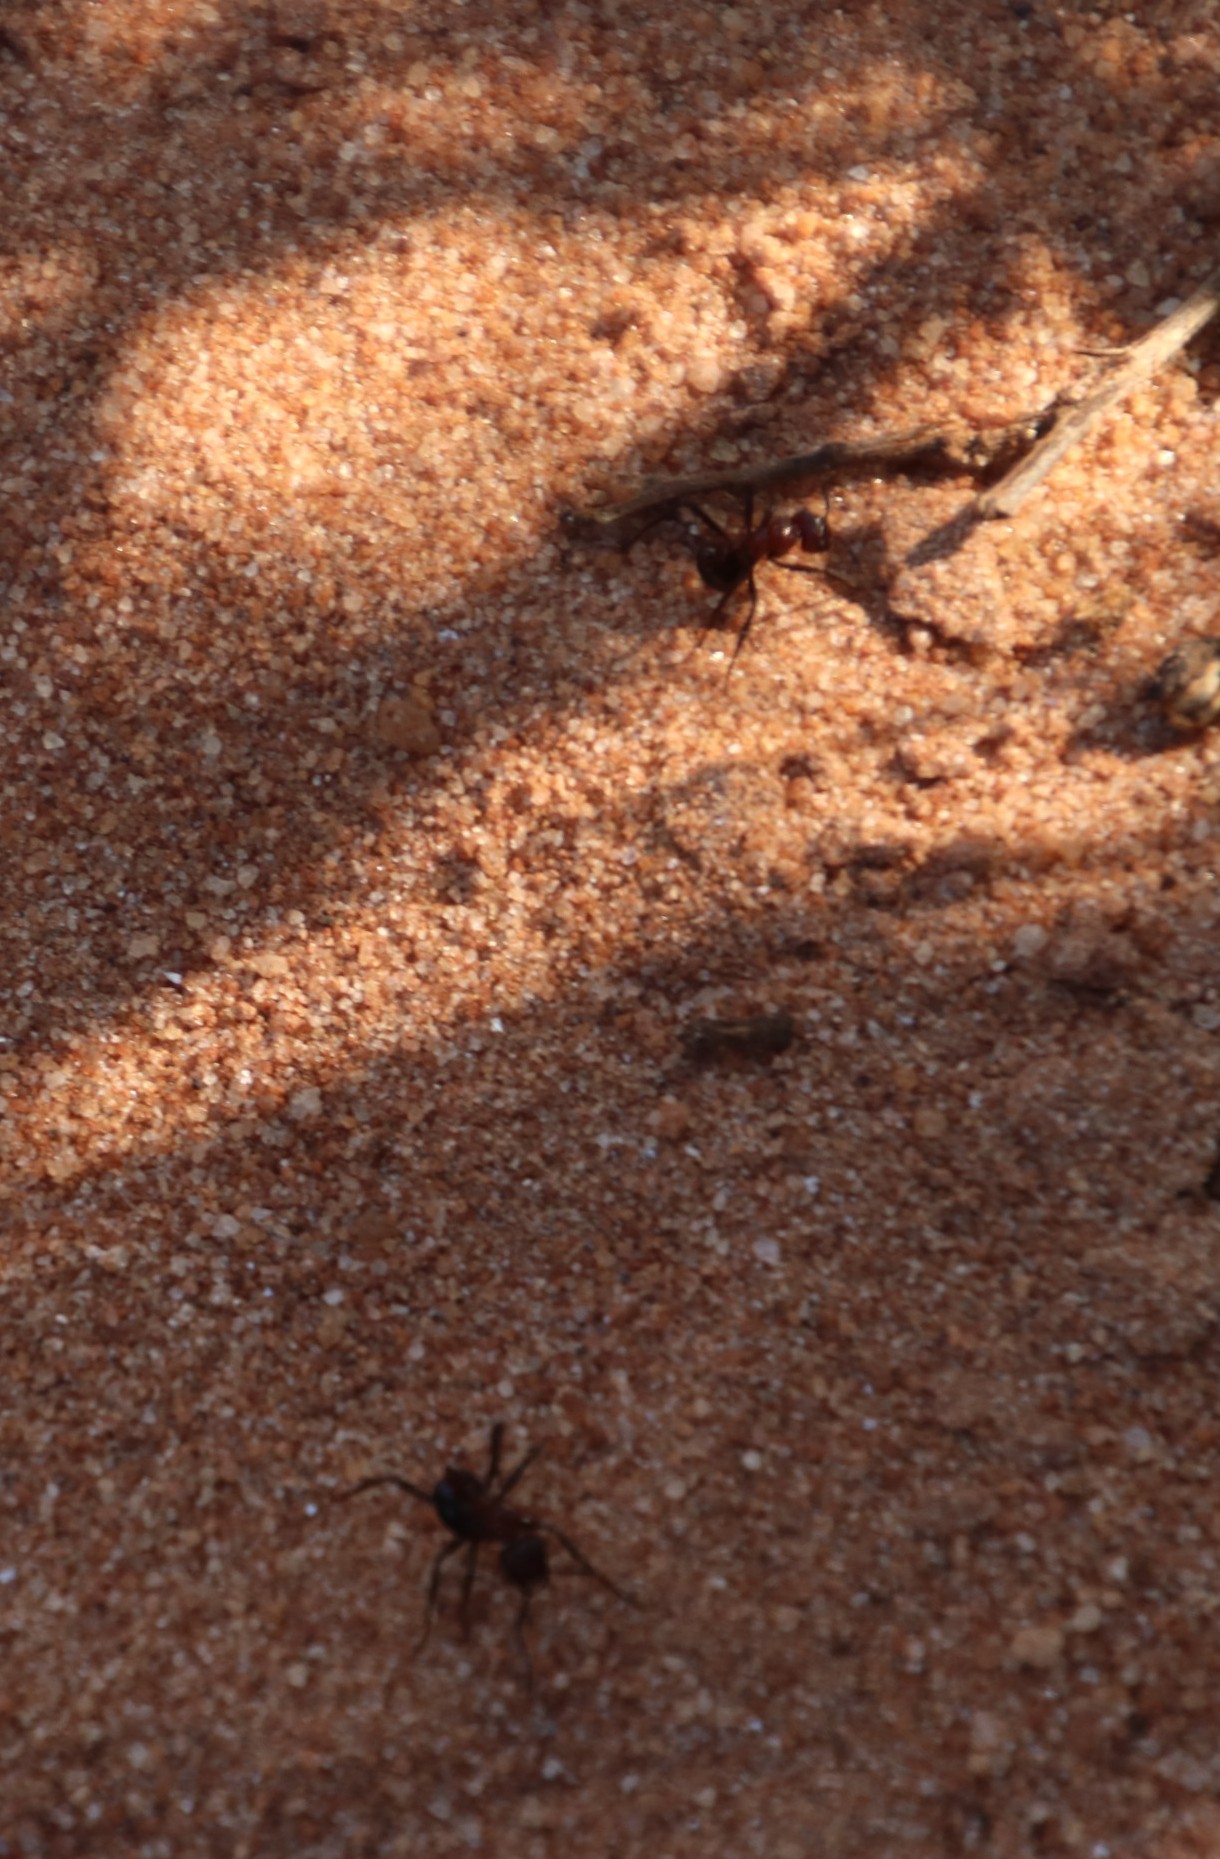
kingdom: Animalia
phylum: Arthropoda
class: Insecta
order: Hymenoptera
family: Formicidae
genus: Myrmicaria
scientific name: Myrmicaria natalensis
